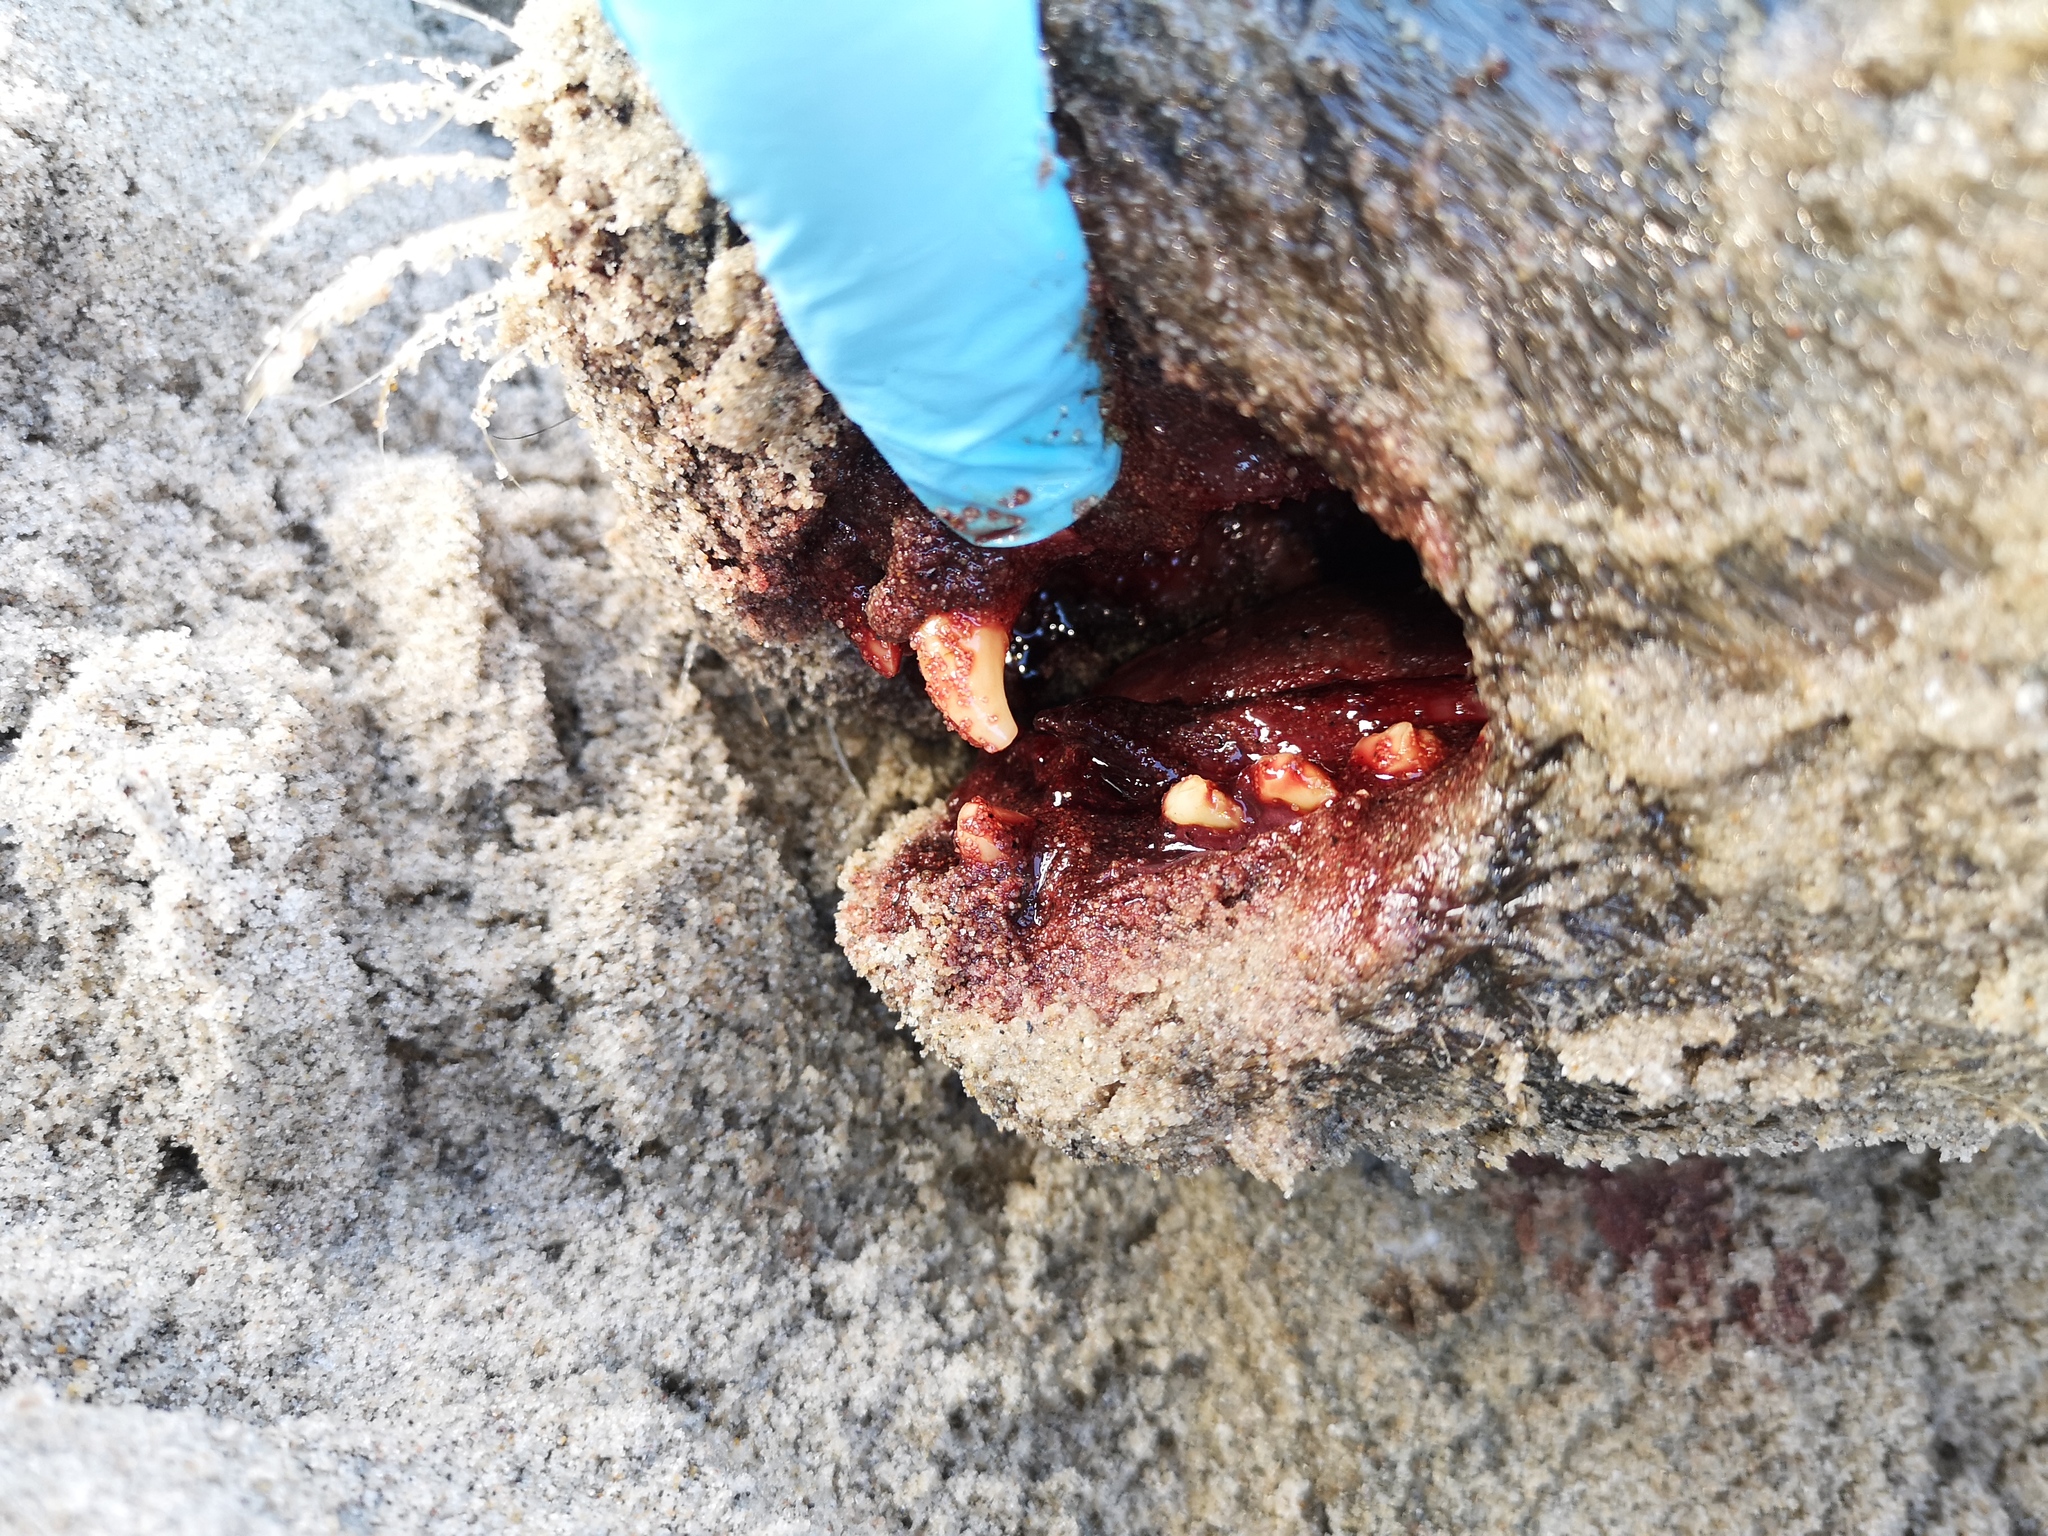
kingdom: Animalia
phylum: Chordata
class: Mammalia
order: Carnivora
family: Phocidae
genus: Phoca
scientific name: Phoca vitulina
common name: Harbor seal
